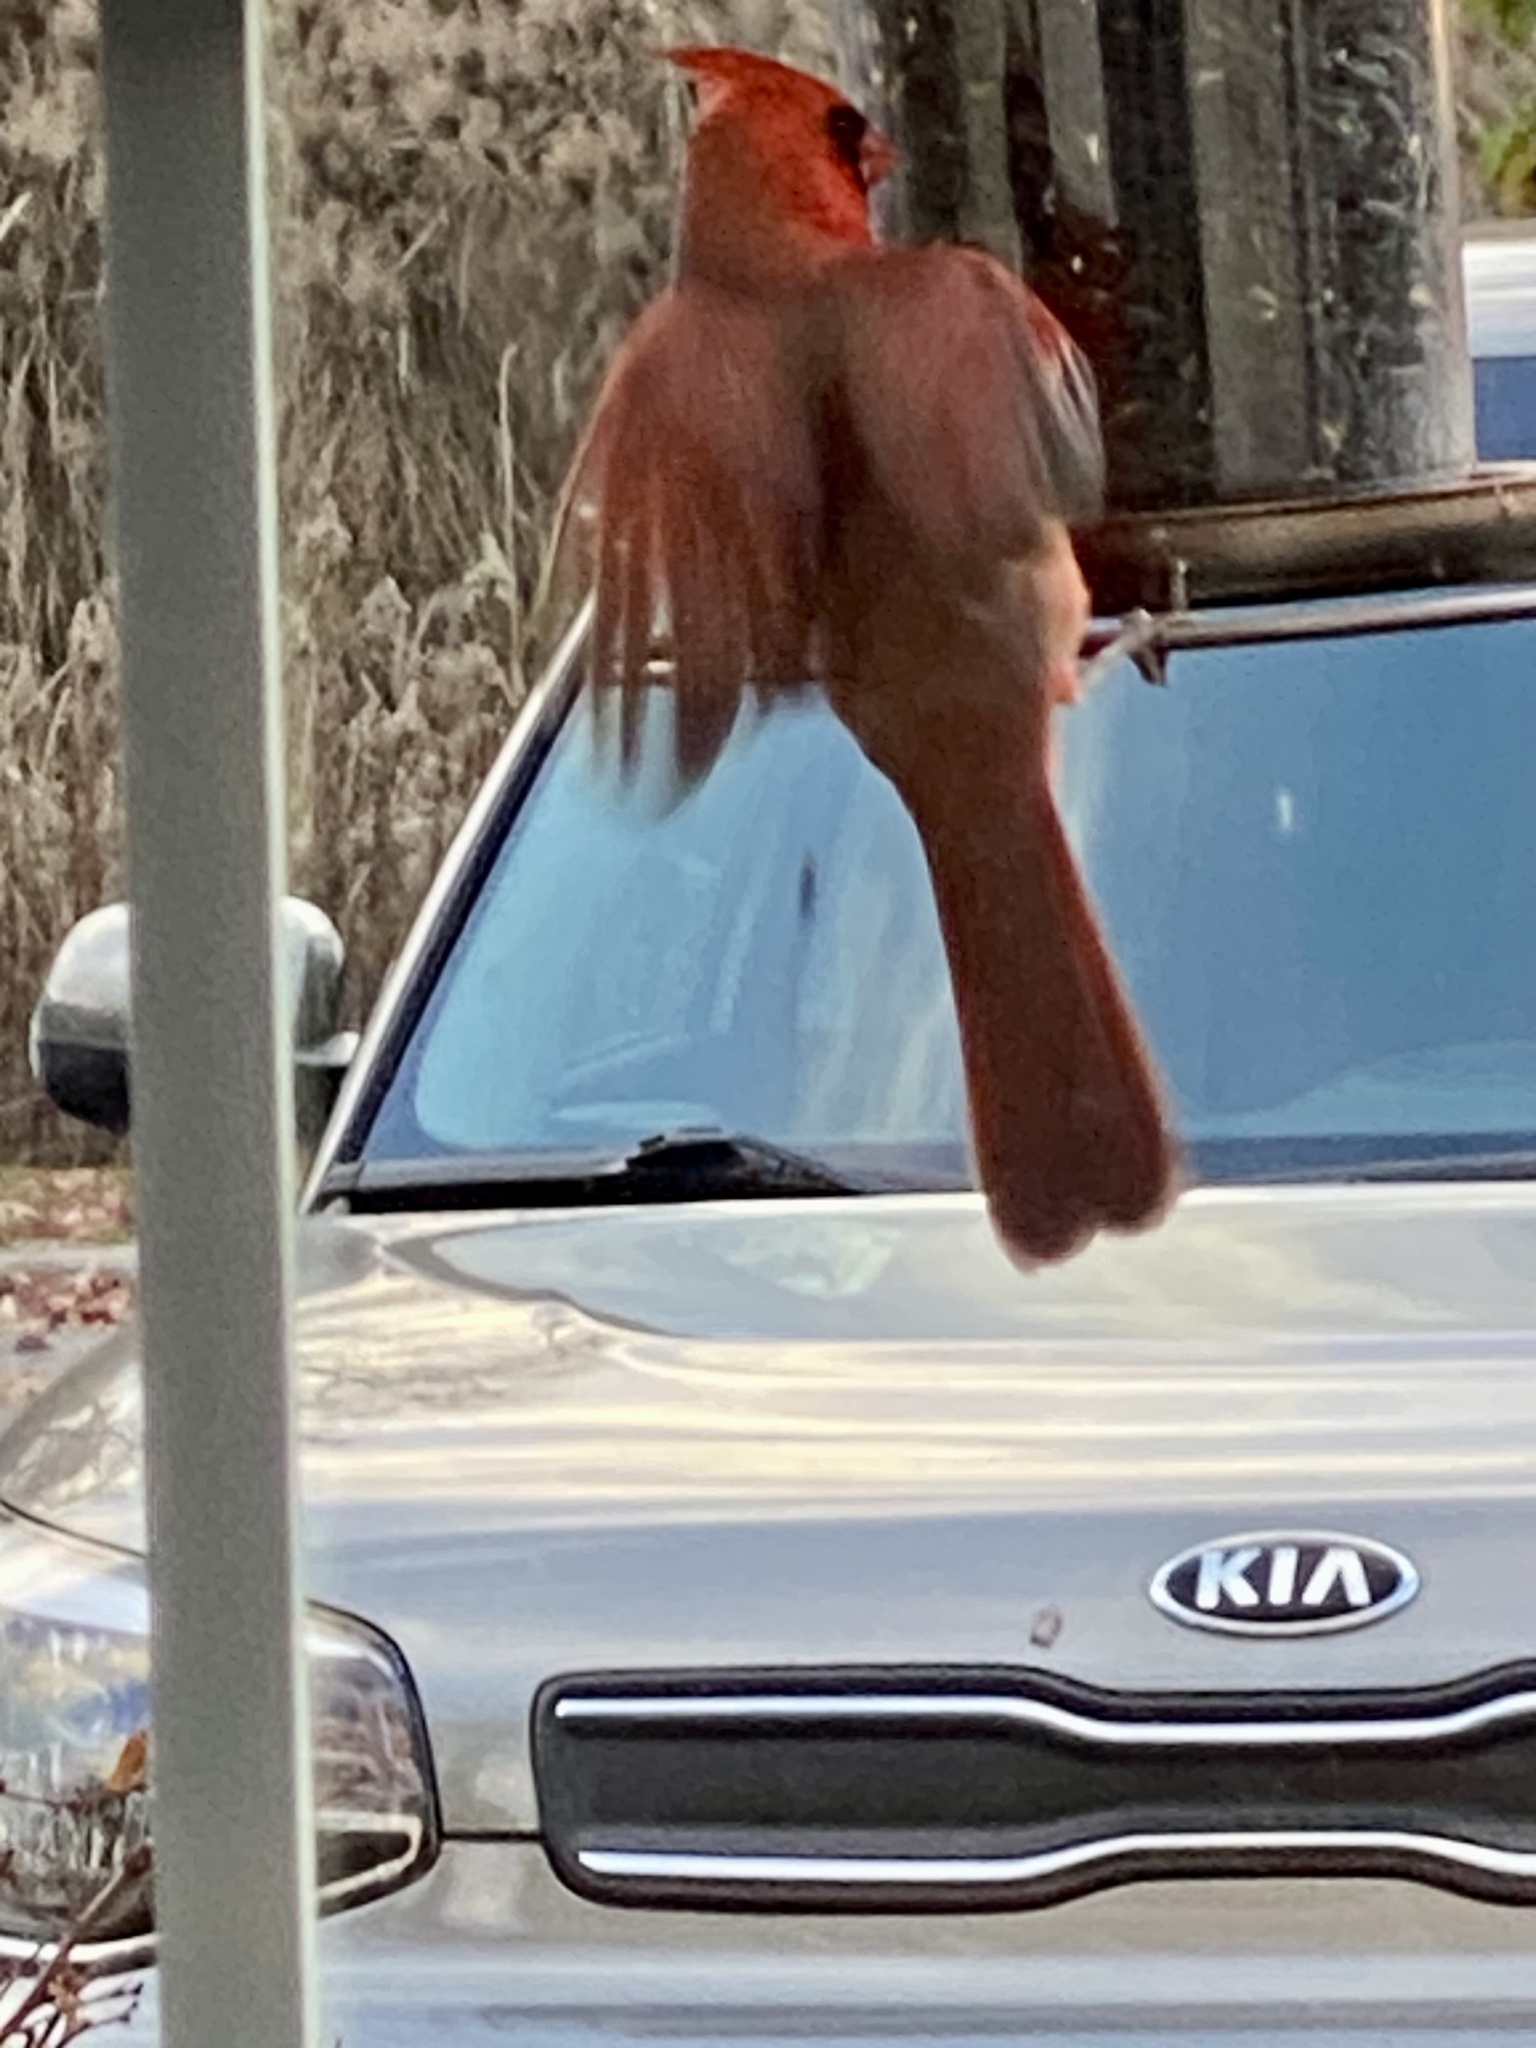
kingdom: Animalia
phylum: Chordata
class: Aves
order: Passeriformes
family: Cardinalidae
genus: Cardinalis
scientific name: Cardinalis cardinalis
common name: Northern cardinal
